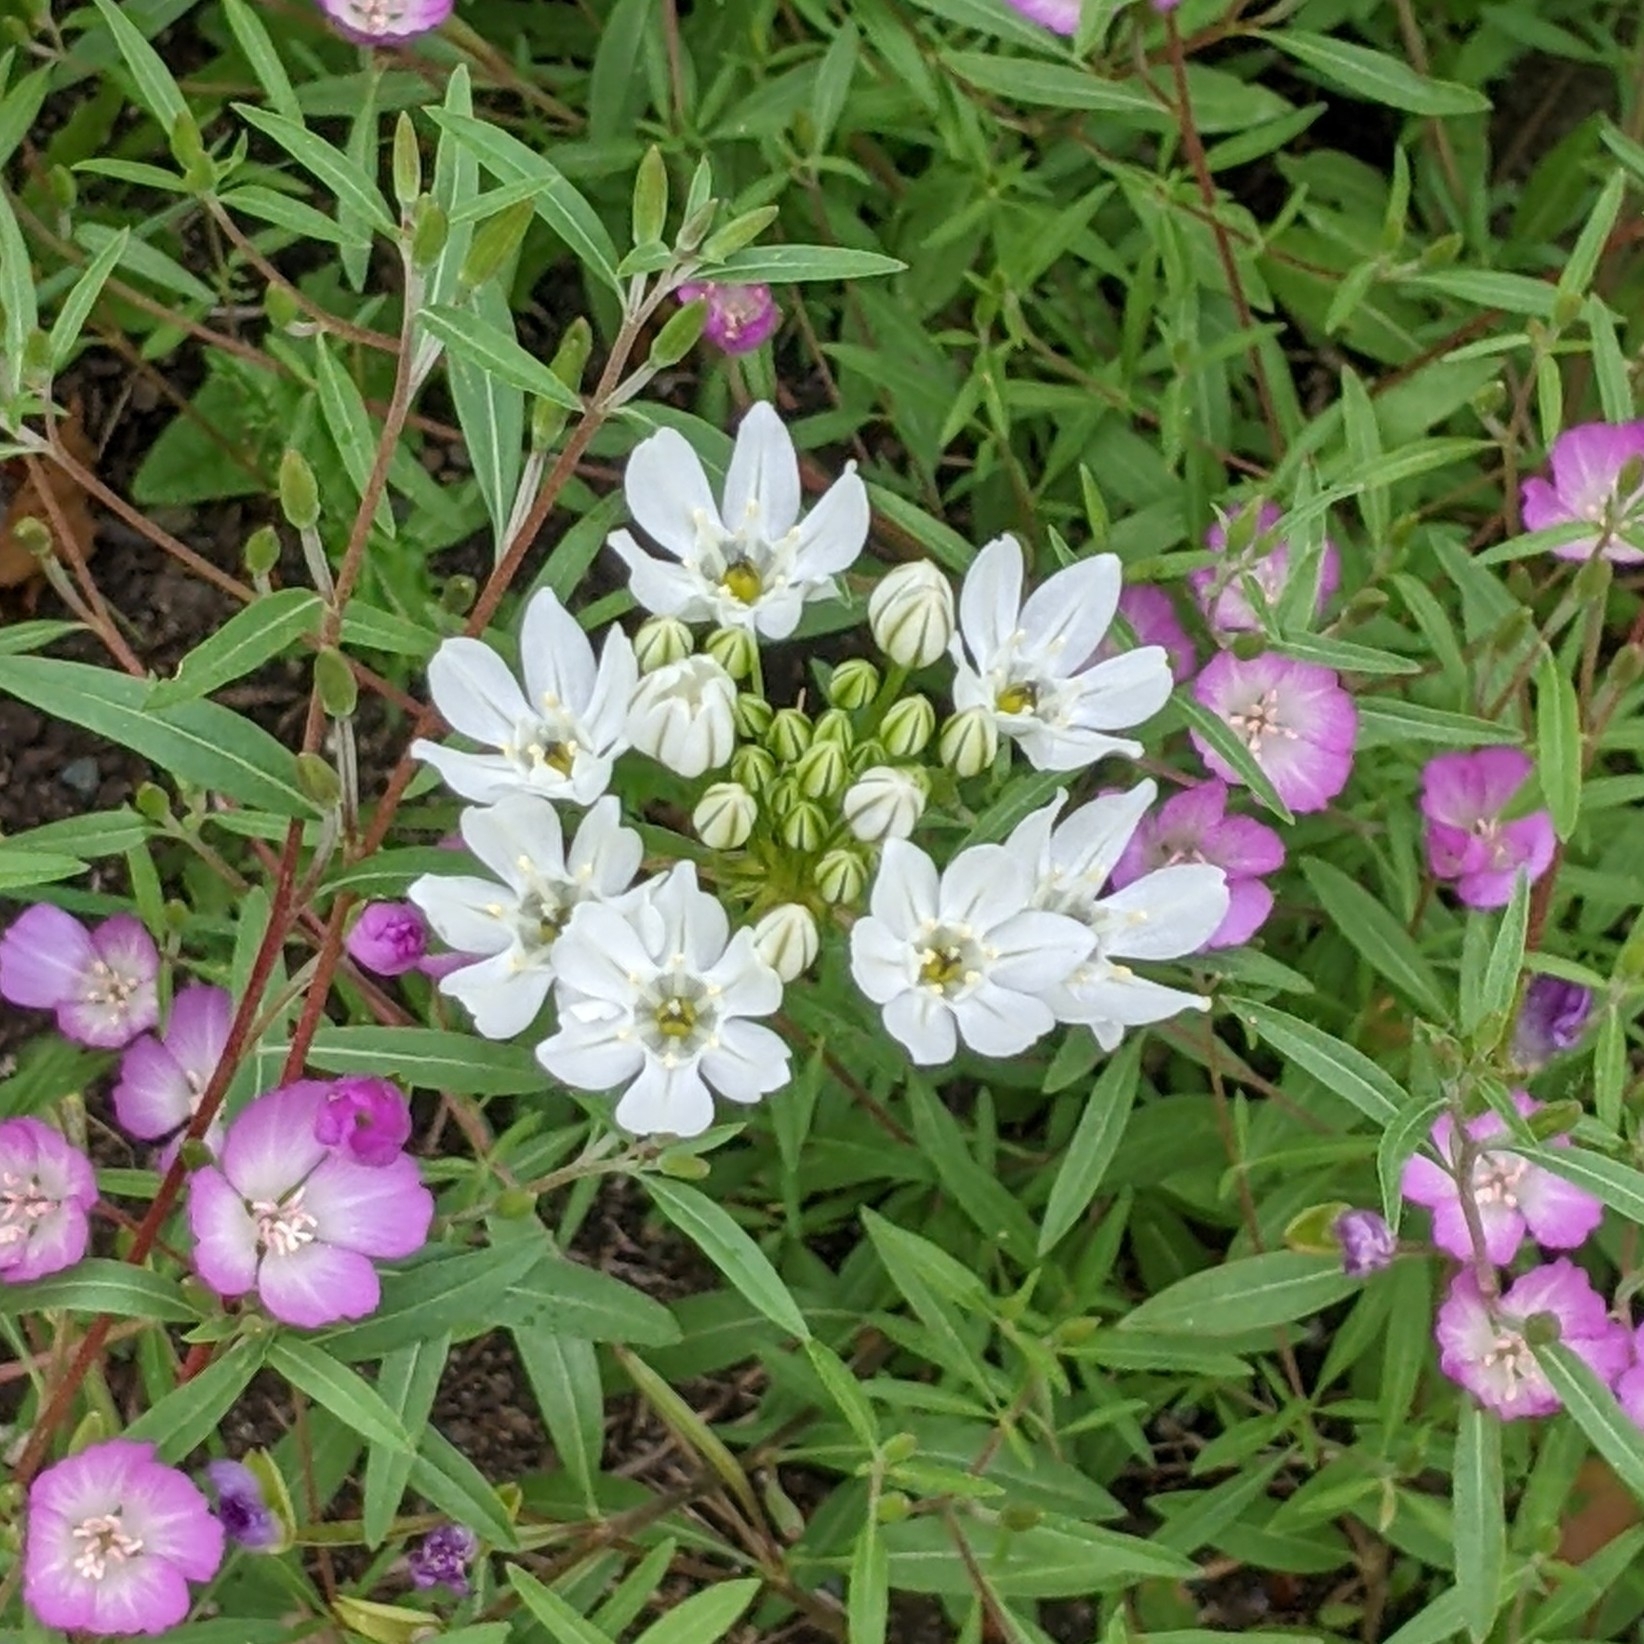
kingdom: Plantae
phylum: Tracheophyta
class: Liliopsida
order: Asparagales
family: Asparagaceae
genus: Triteleia
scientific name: Triteleia hyacinthina
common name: White brodiaea
